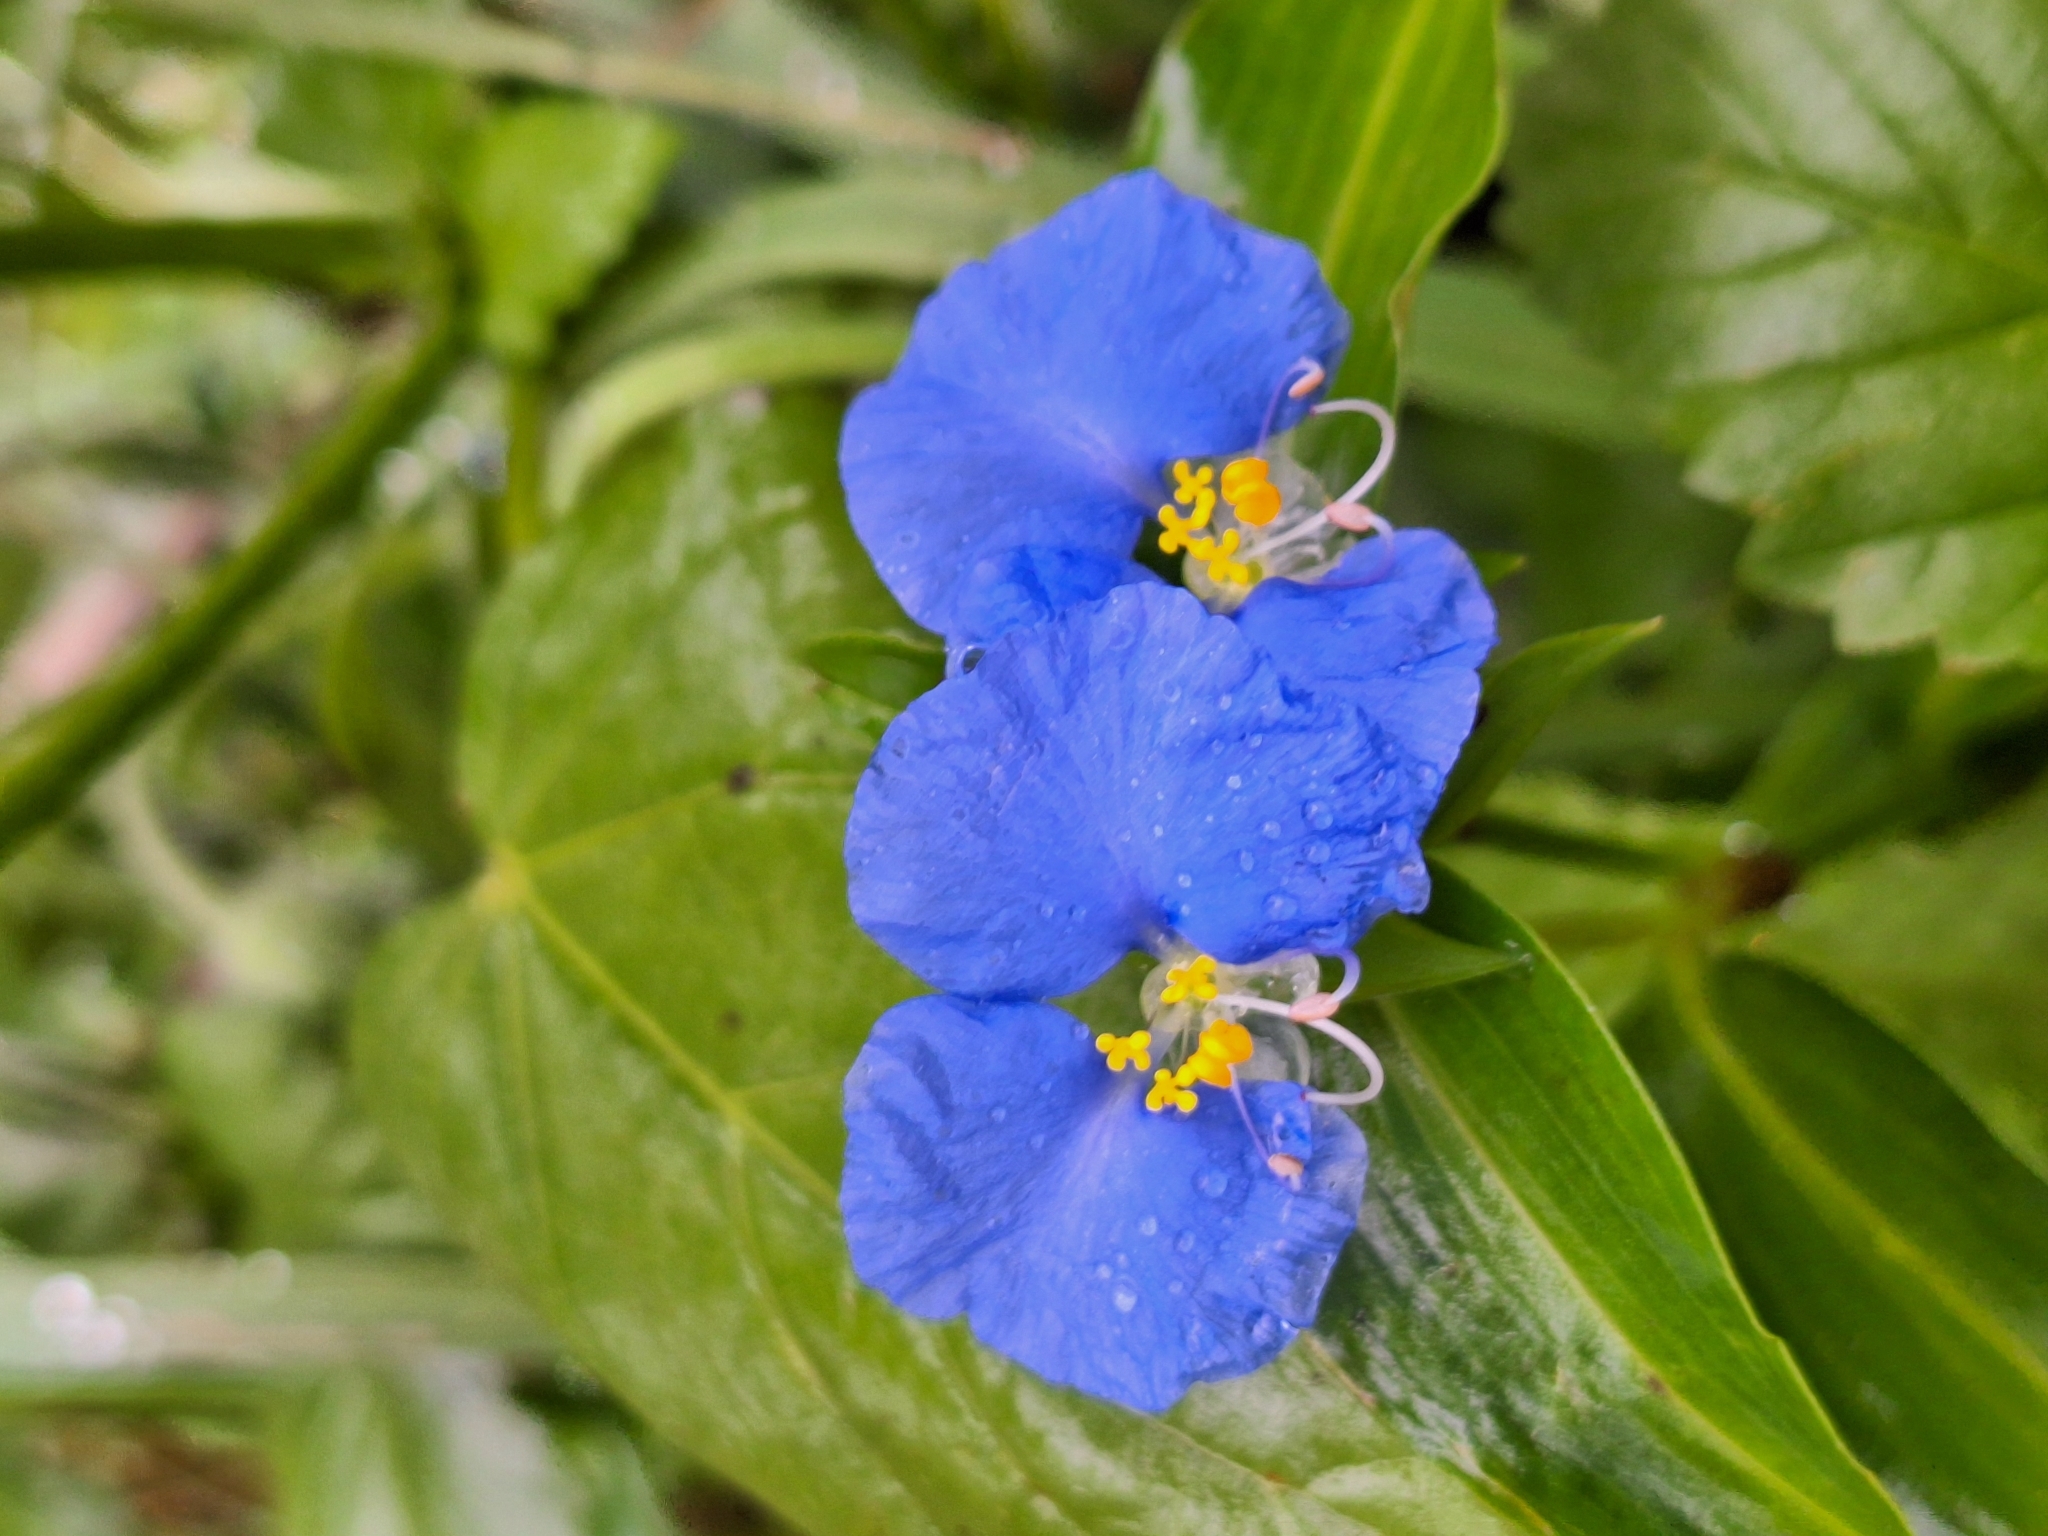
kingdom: Plantae
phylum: Tracheophyta
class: Liliopsida
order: Commelinales
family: Commelinaceae
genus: Commelina
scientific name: Commelina erecta
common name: Blousel blommetjie
